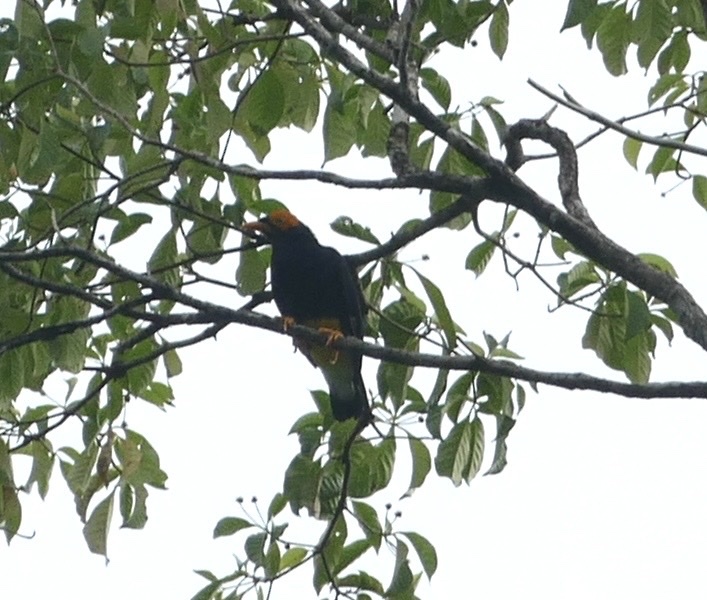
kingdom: Animalia
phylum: Chordata
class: Aves
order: Passeriformes
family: Sturnidae
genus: Mino
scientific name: Mino dumontii
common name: Yellow-faced myna
